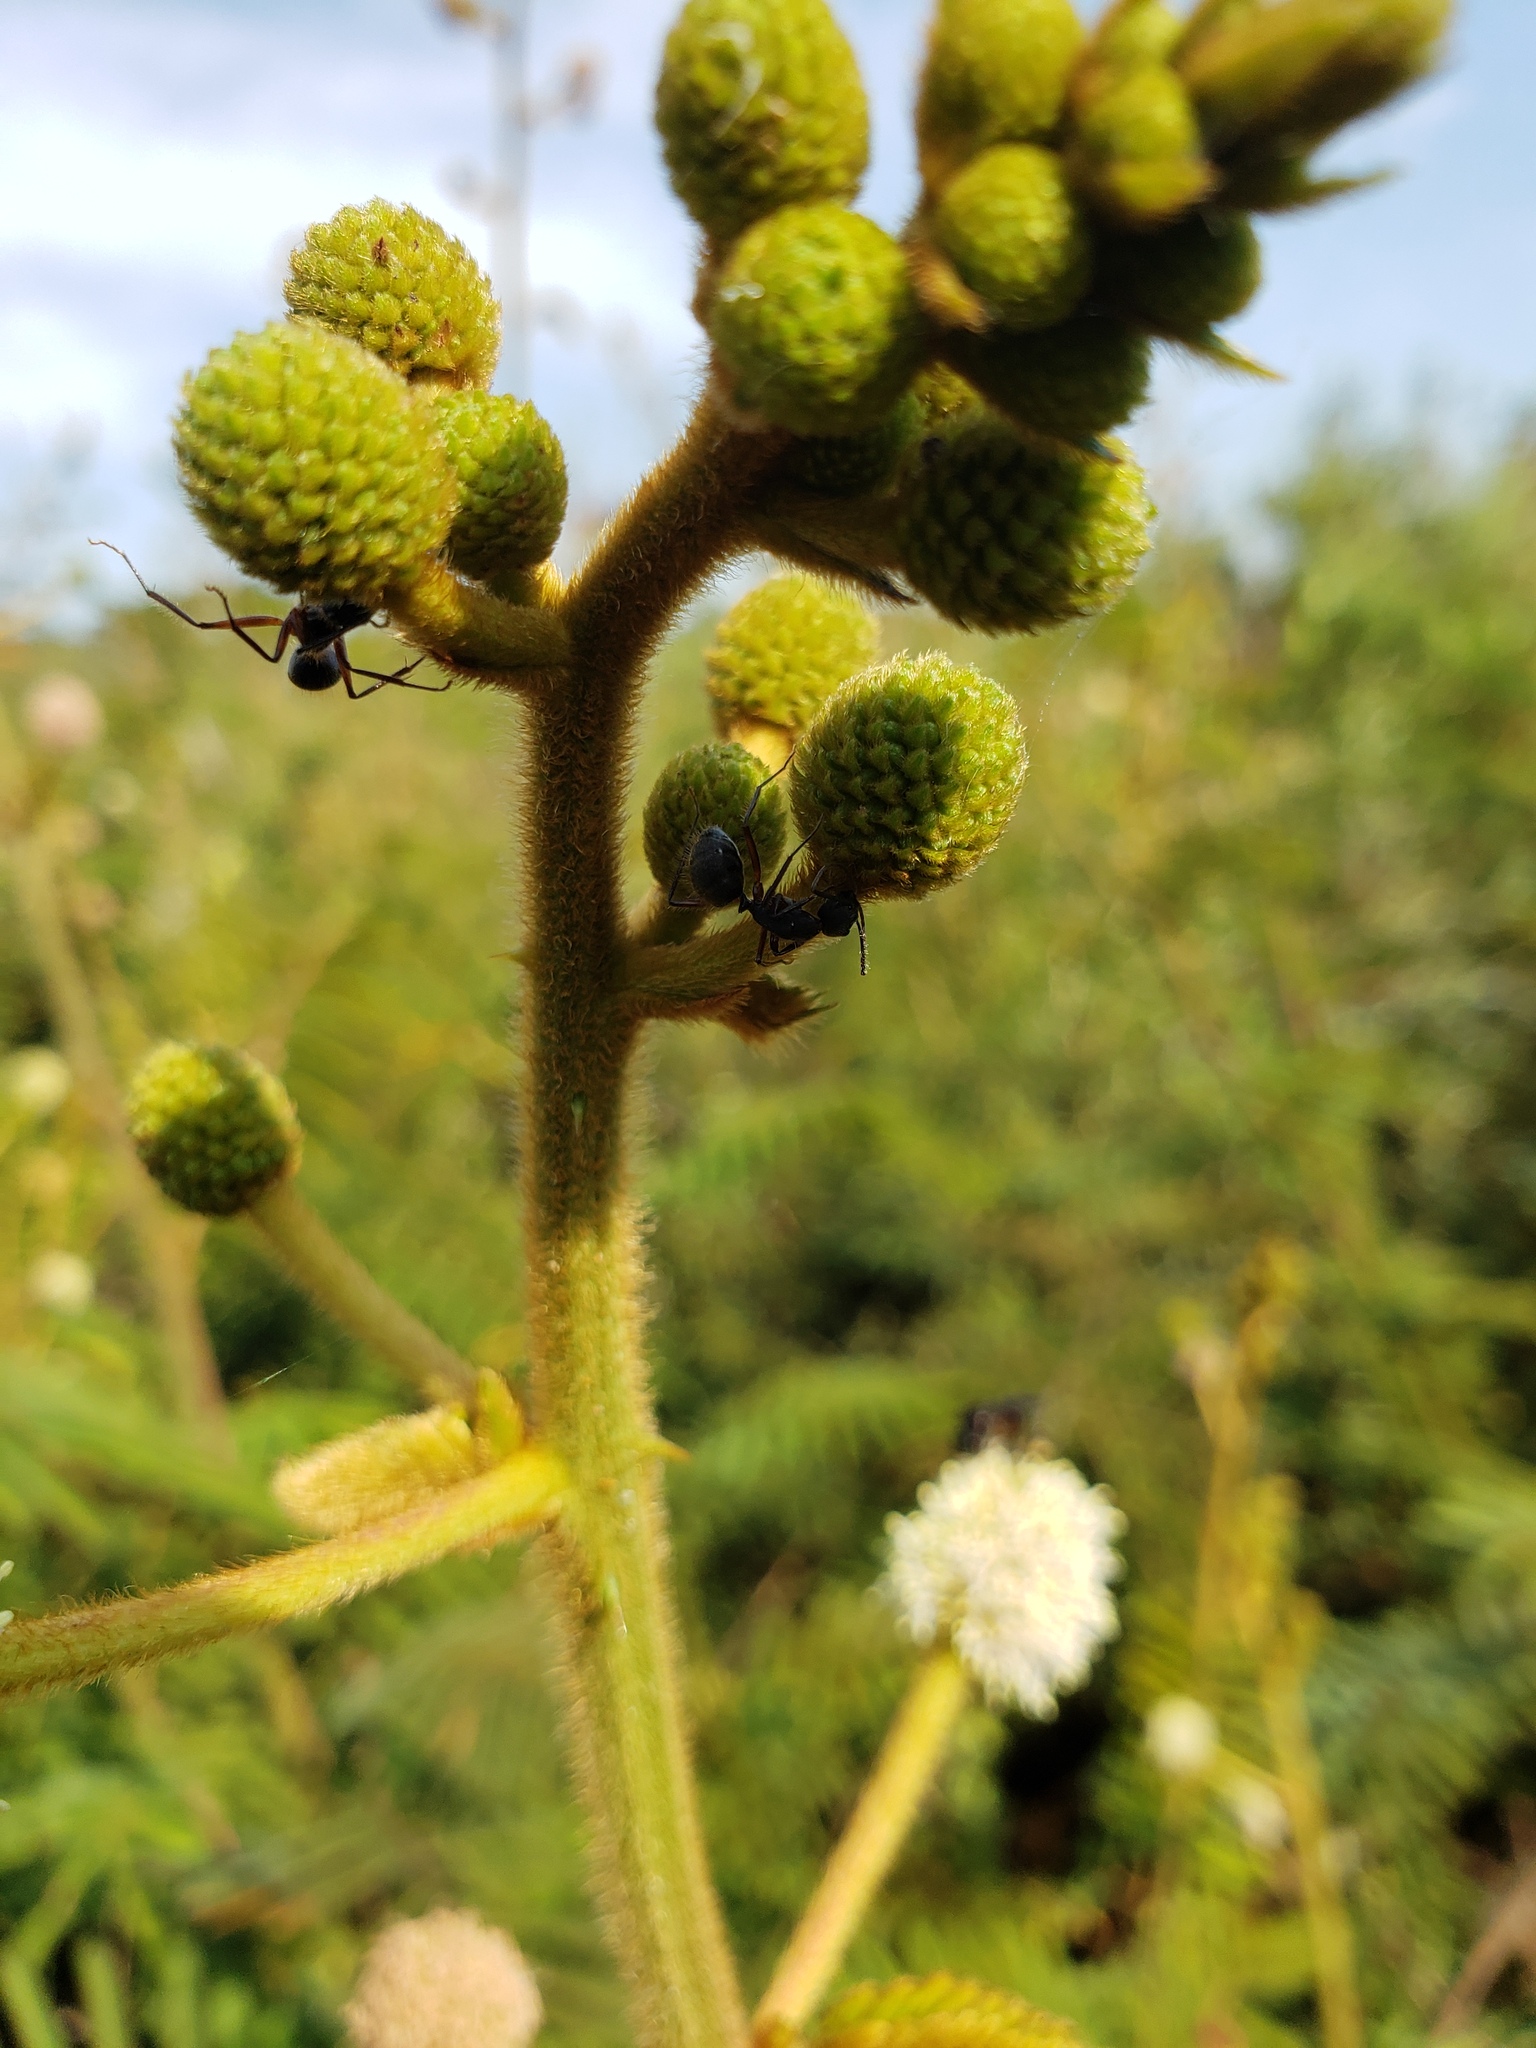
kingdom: Animalia
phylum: Arthropoda
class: Insecta
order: Hymenoptera
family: Formicidae
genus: Camponotus
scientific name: Camponotus rufipes
